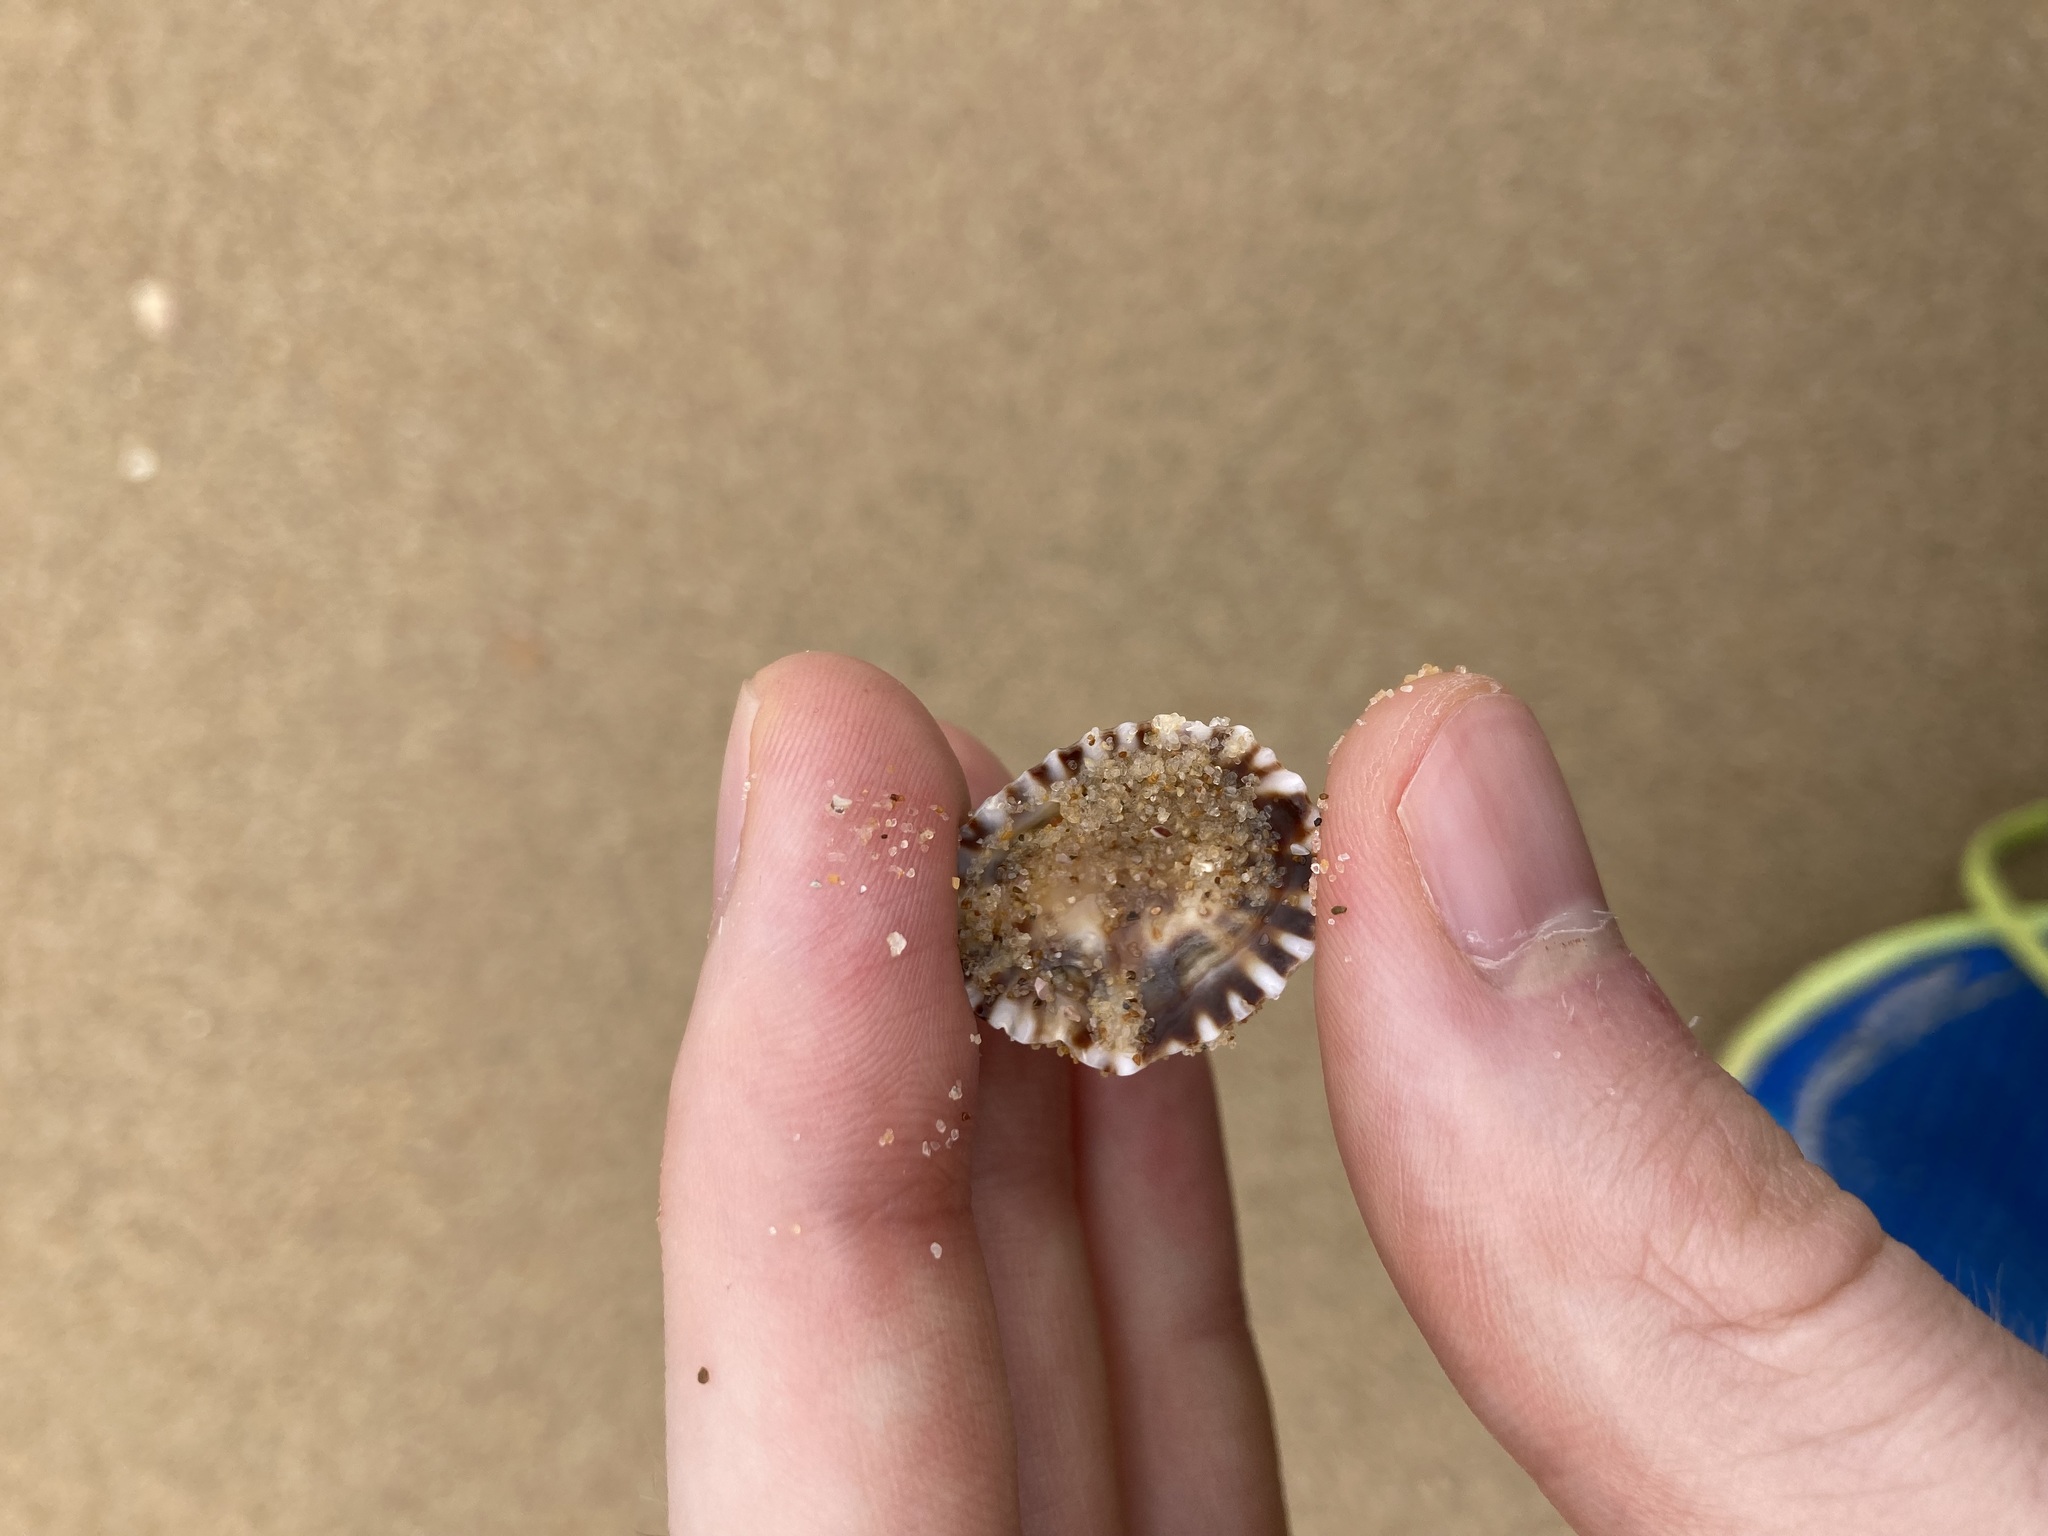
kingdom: Animalia
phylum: Mollusca
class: Gastropoda
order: Siphonariida
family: Siphonariidae
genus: Siphonaria
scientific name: Siphonaria denticulata
